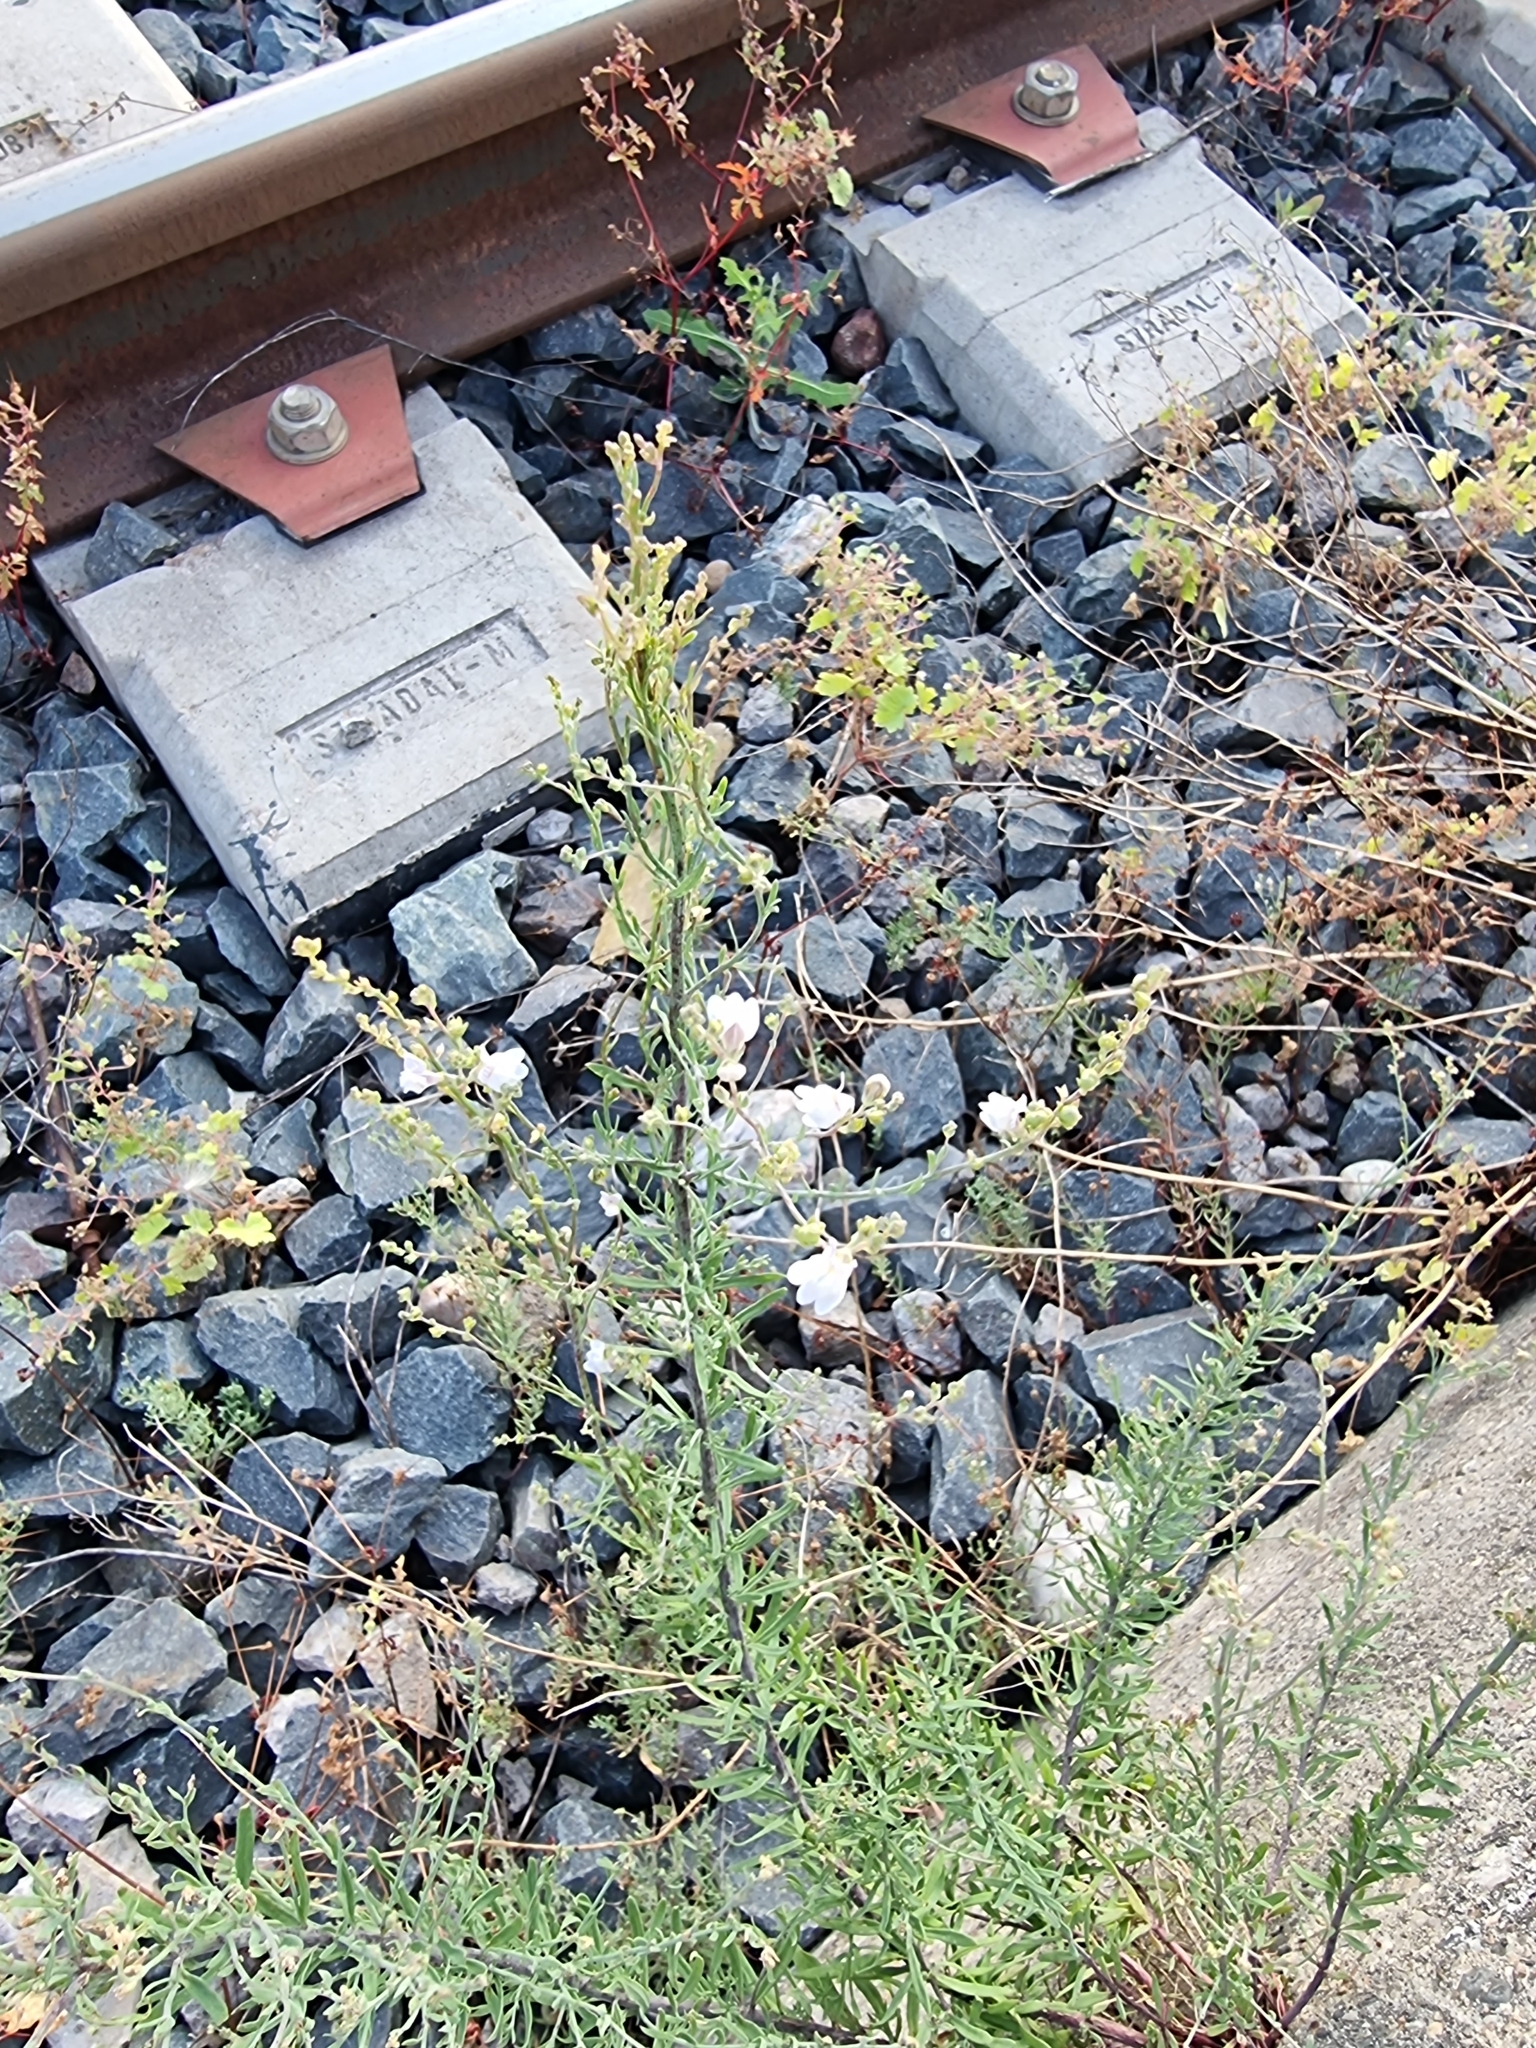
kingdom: Plantae
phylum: Tracheophyta
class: Magnoliopsida
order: Lamiales
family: Plantaginaceae
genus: Linaria
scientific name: Linaria repens
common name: Pale toadflax
